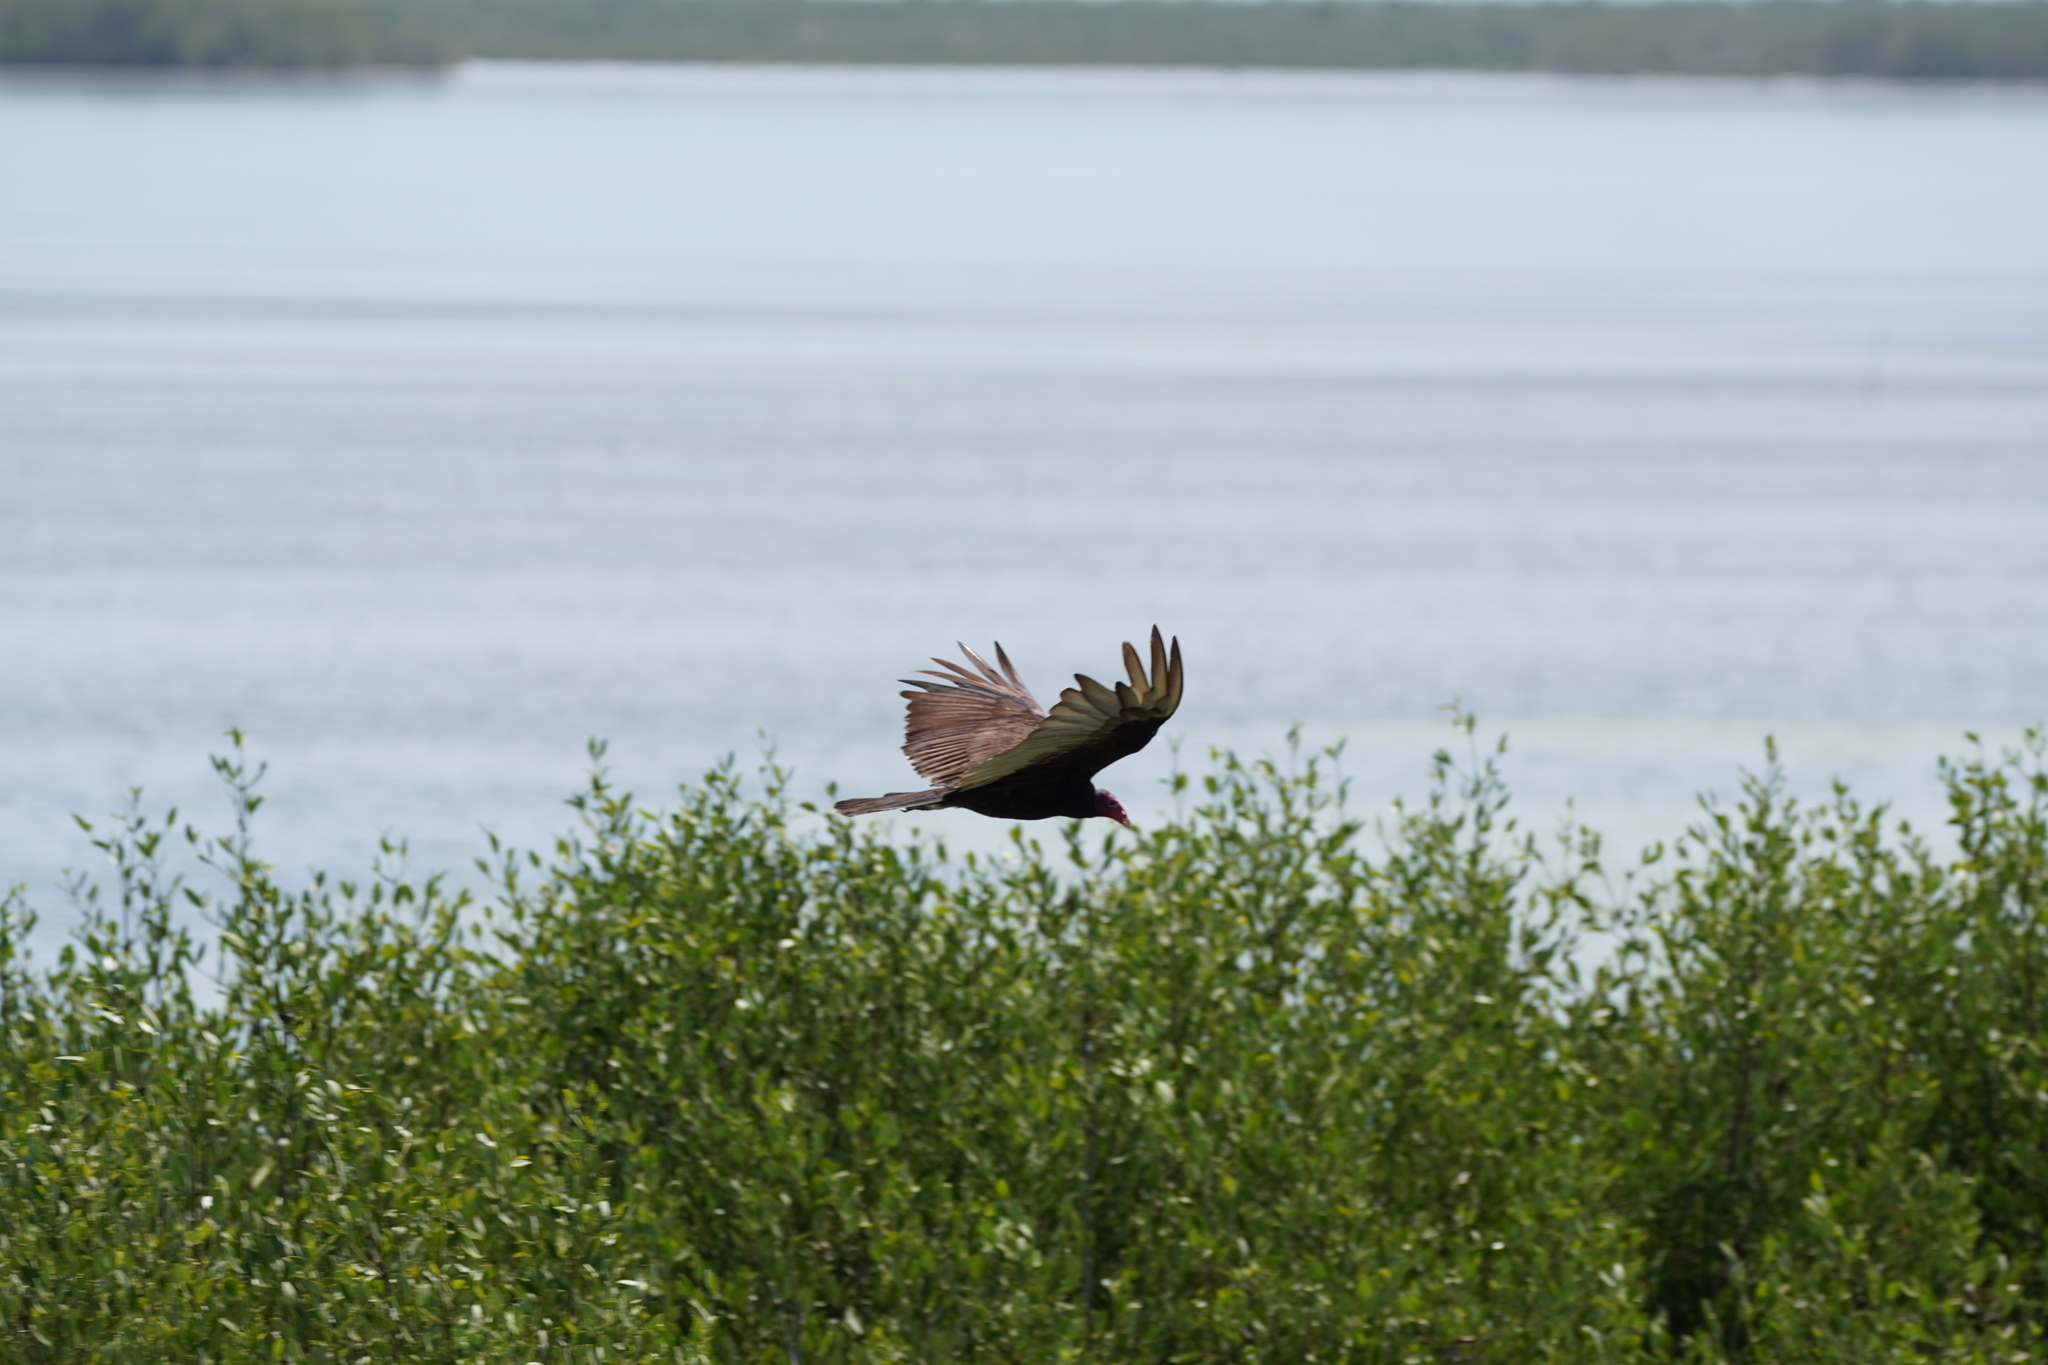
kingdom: Animalia
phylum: Chordata
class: Aves
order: Accipitriformes
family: Cathartidae
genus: Cathartes
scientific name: Cathartes aura
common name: Turkey vulture
